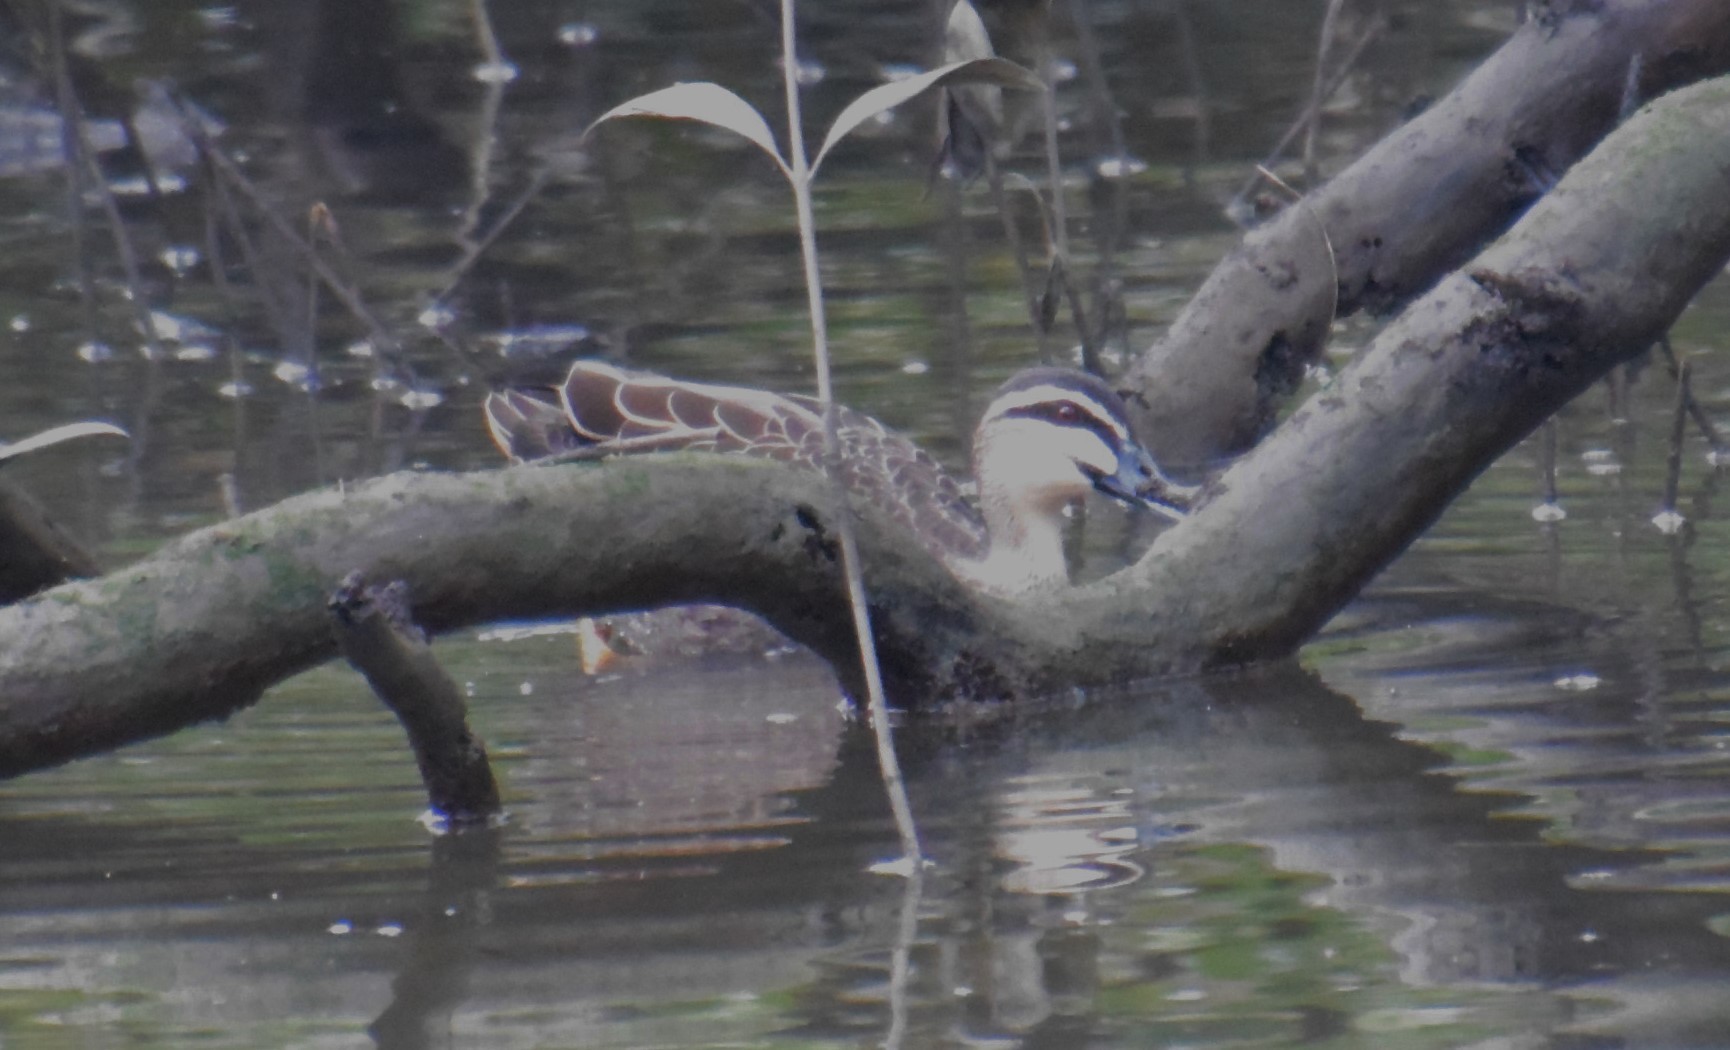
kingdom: Animalia
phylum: Chordata
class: Aves
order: Anseriformes
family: Anatidae
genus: Anas
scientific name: Anas superciliosa
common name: Pacific black duck
